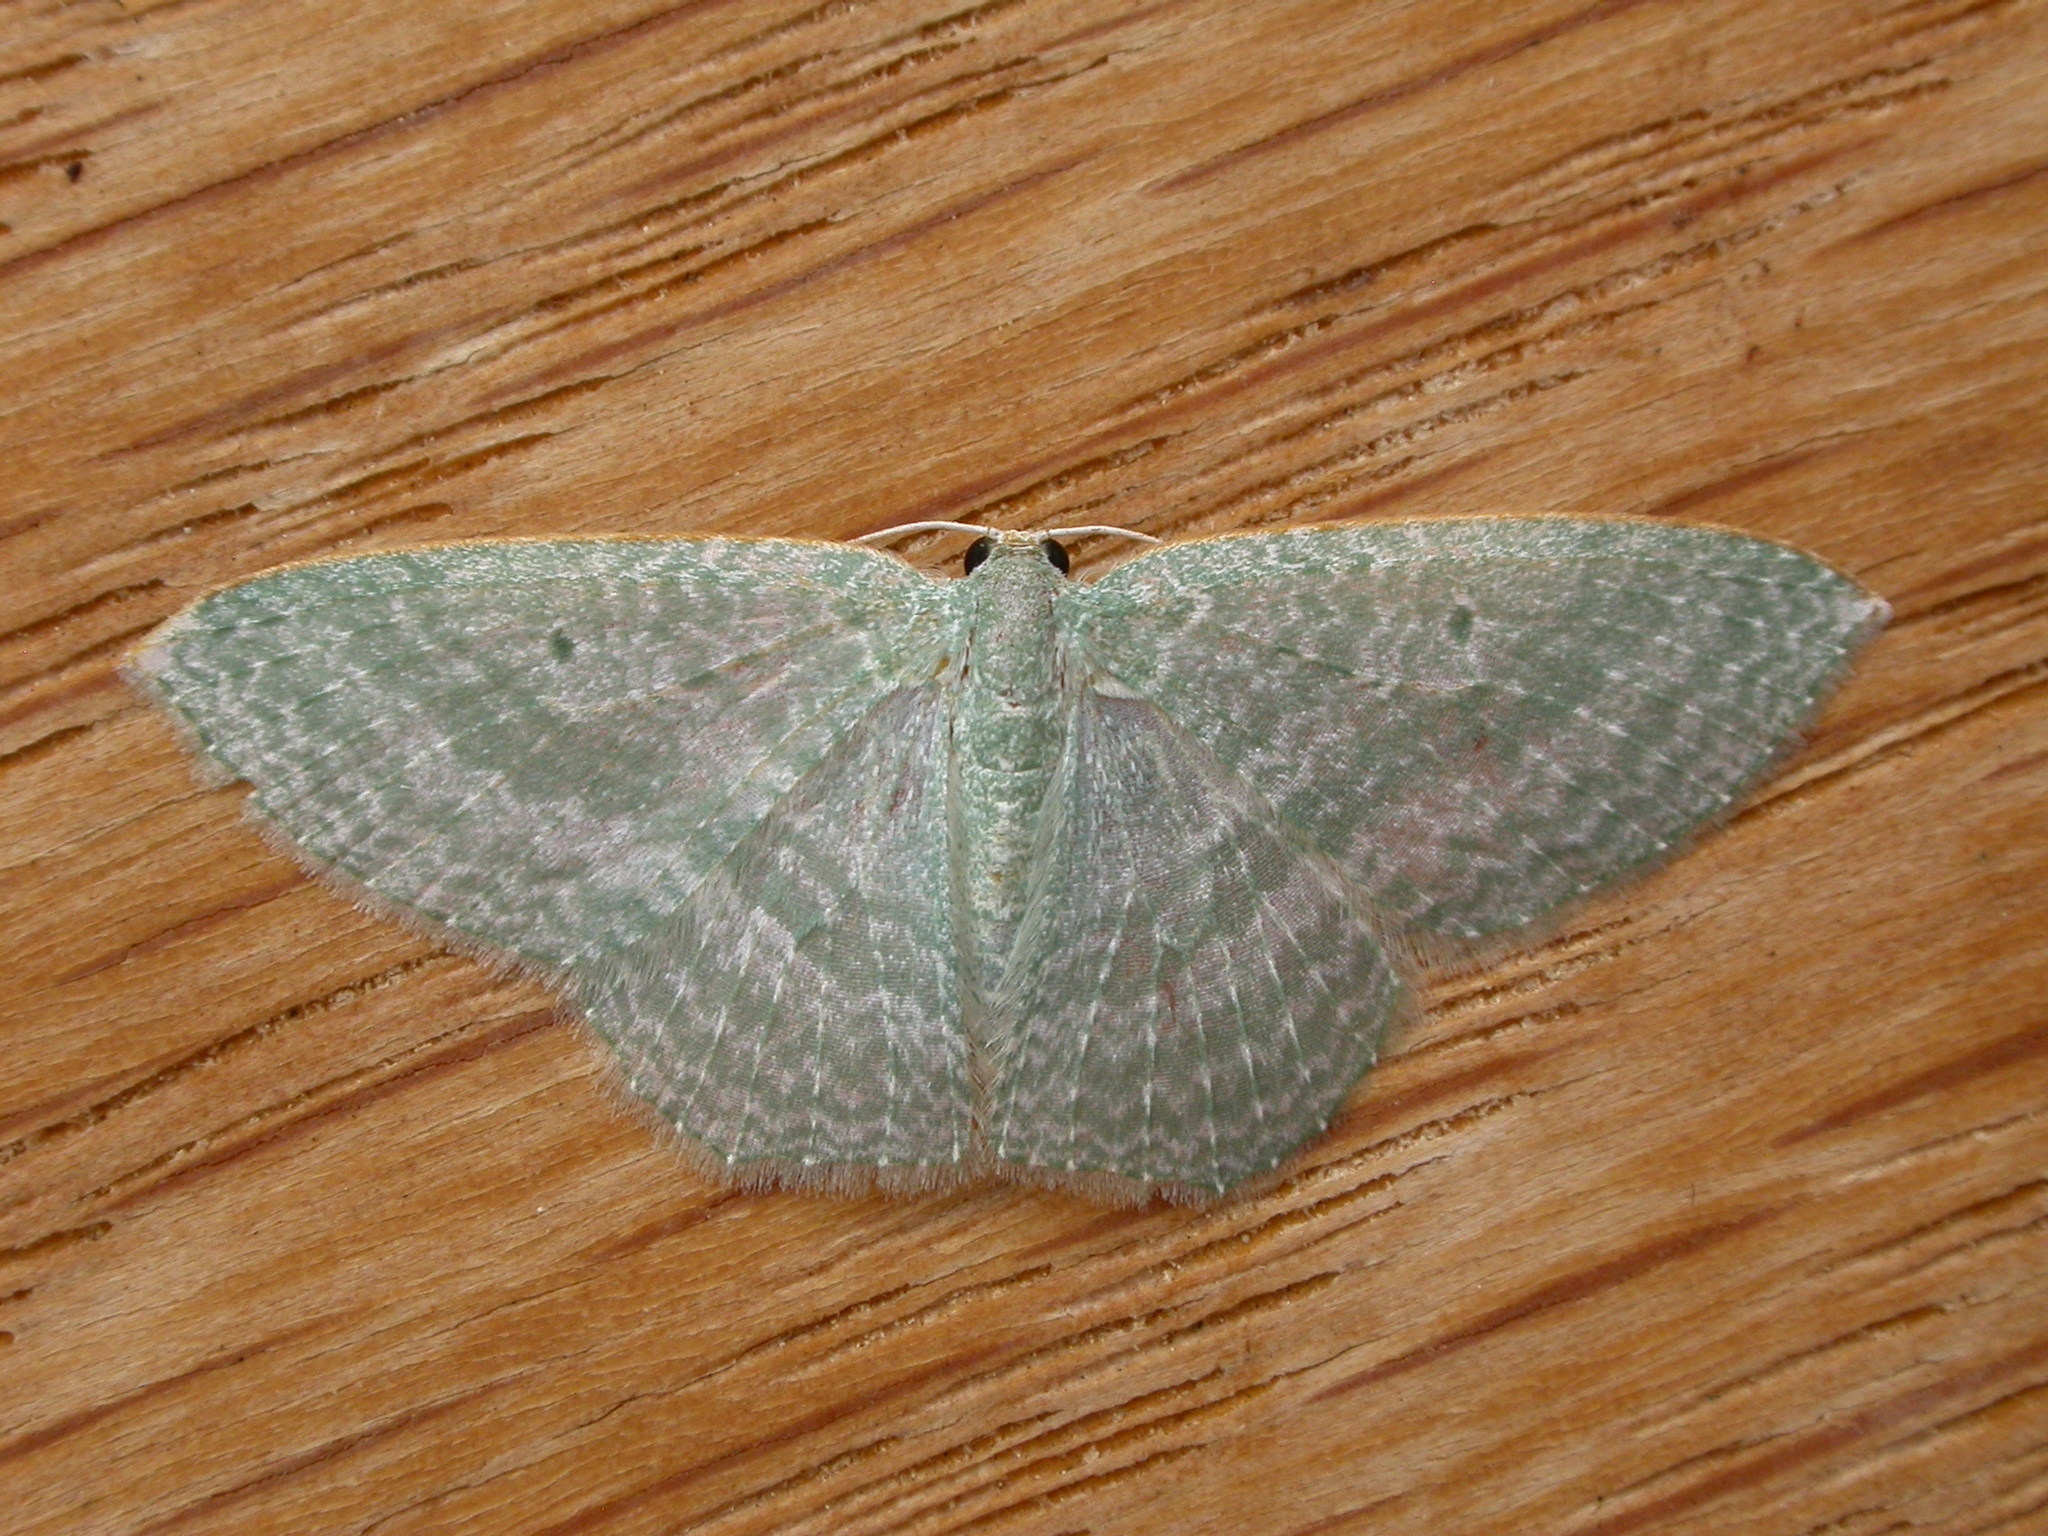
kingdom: Animalia
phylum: Arthropoda
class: Insecta
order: Lepidoptera
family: Geometridae
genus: Poecilasthena
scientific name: Poecilasthena thalassias
